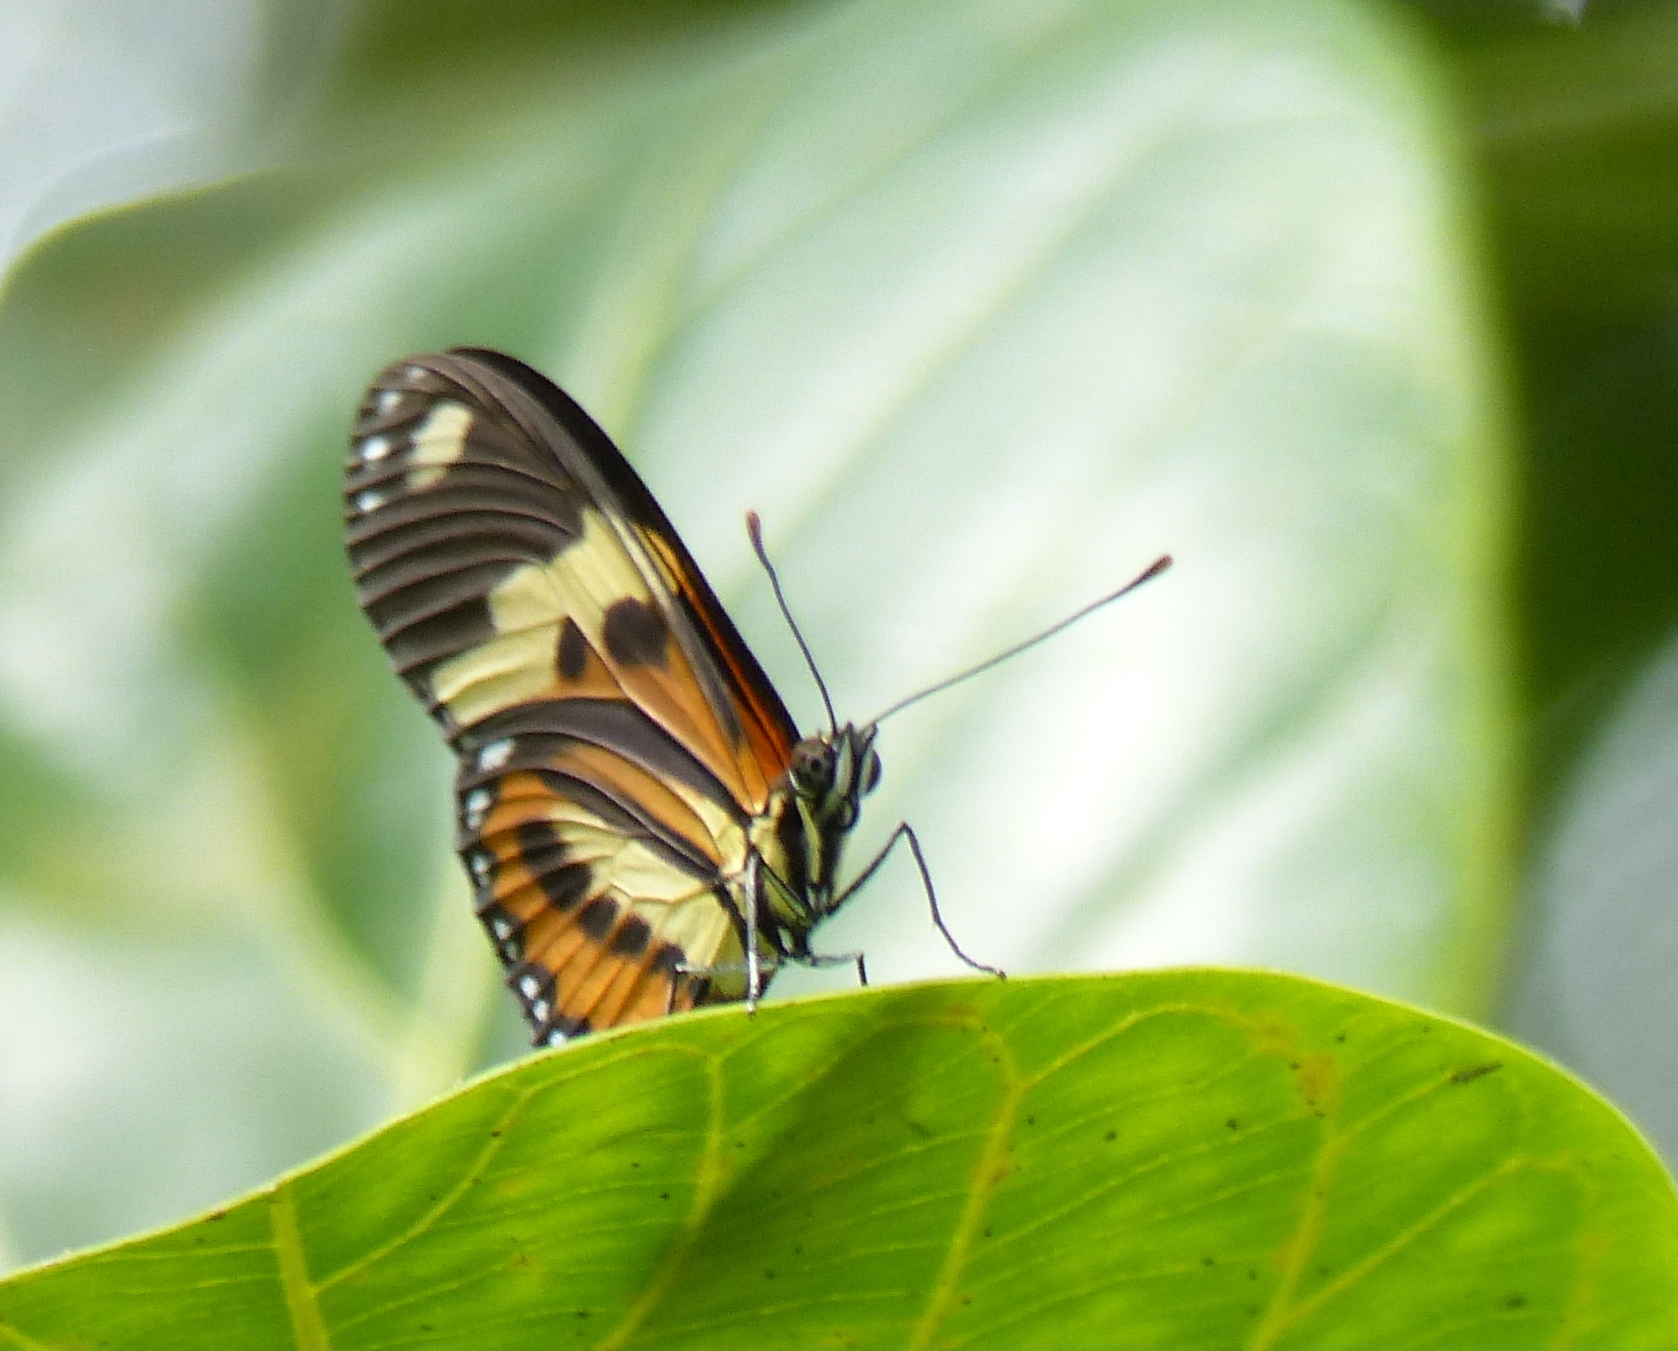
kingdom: Animalia
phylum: Arthropoda
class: Insecta
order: Lepidoptera
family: Nymphalidae
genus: Eueides
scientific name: Eueides isabella
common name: Isabella's longwing
